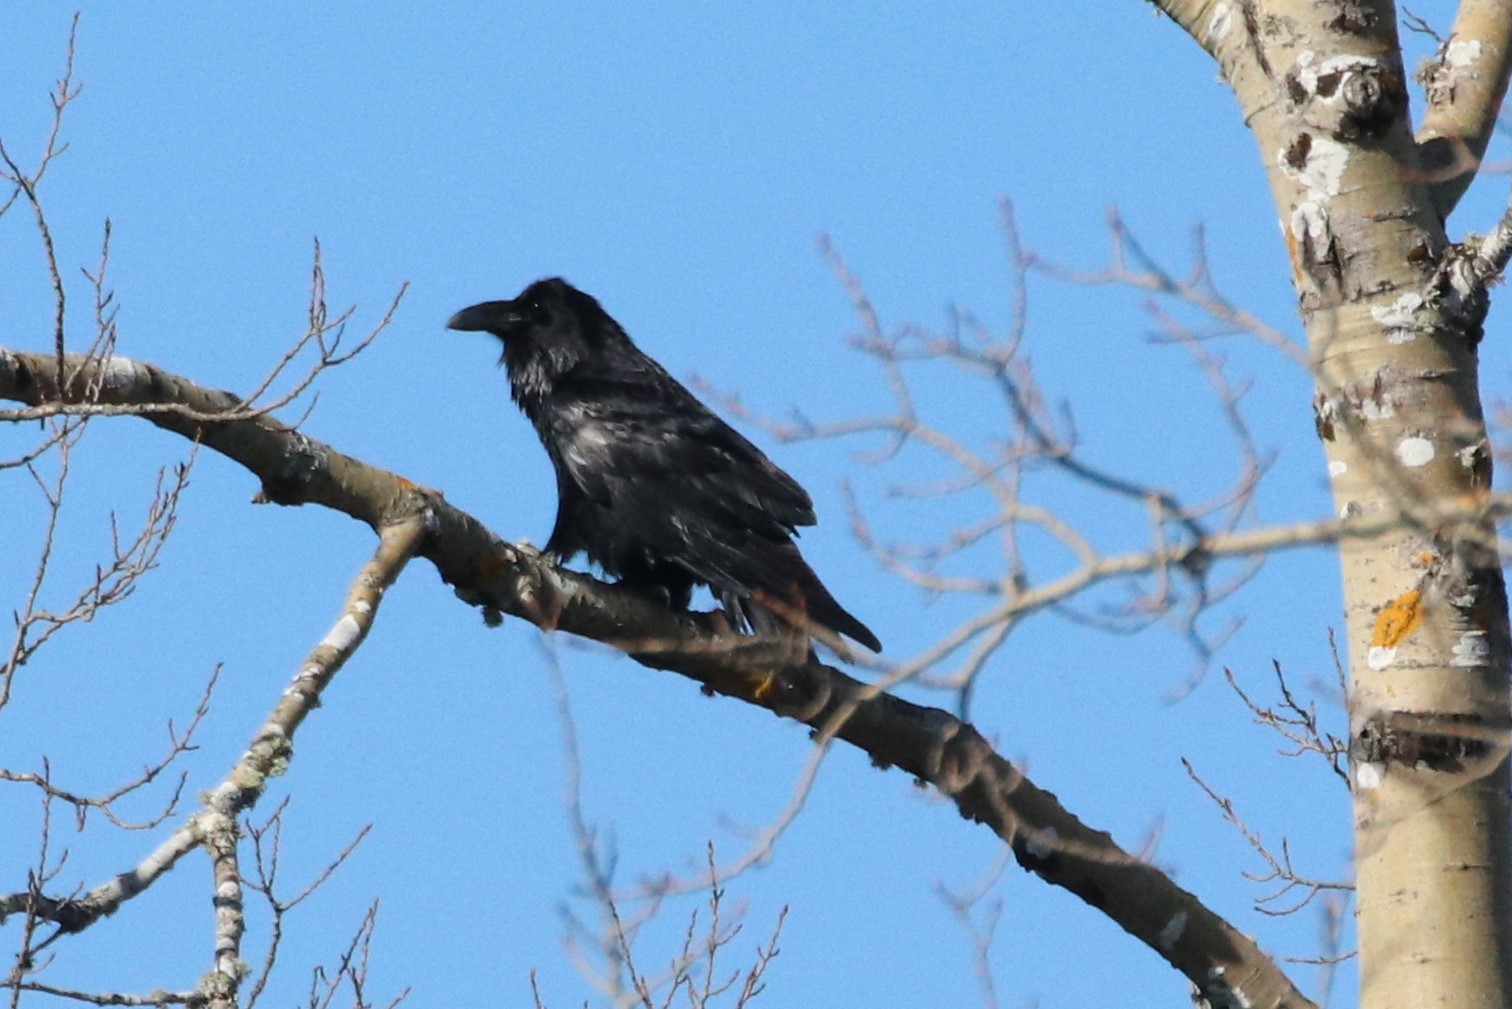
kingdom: Animalia
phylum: Chordata
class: Aves
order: Passeriformes
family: Corvidae
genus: Corvus
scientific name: Corvus corax
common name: Common raven
